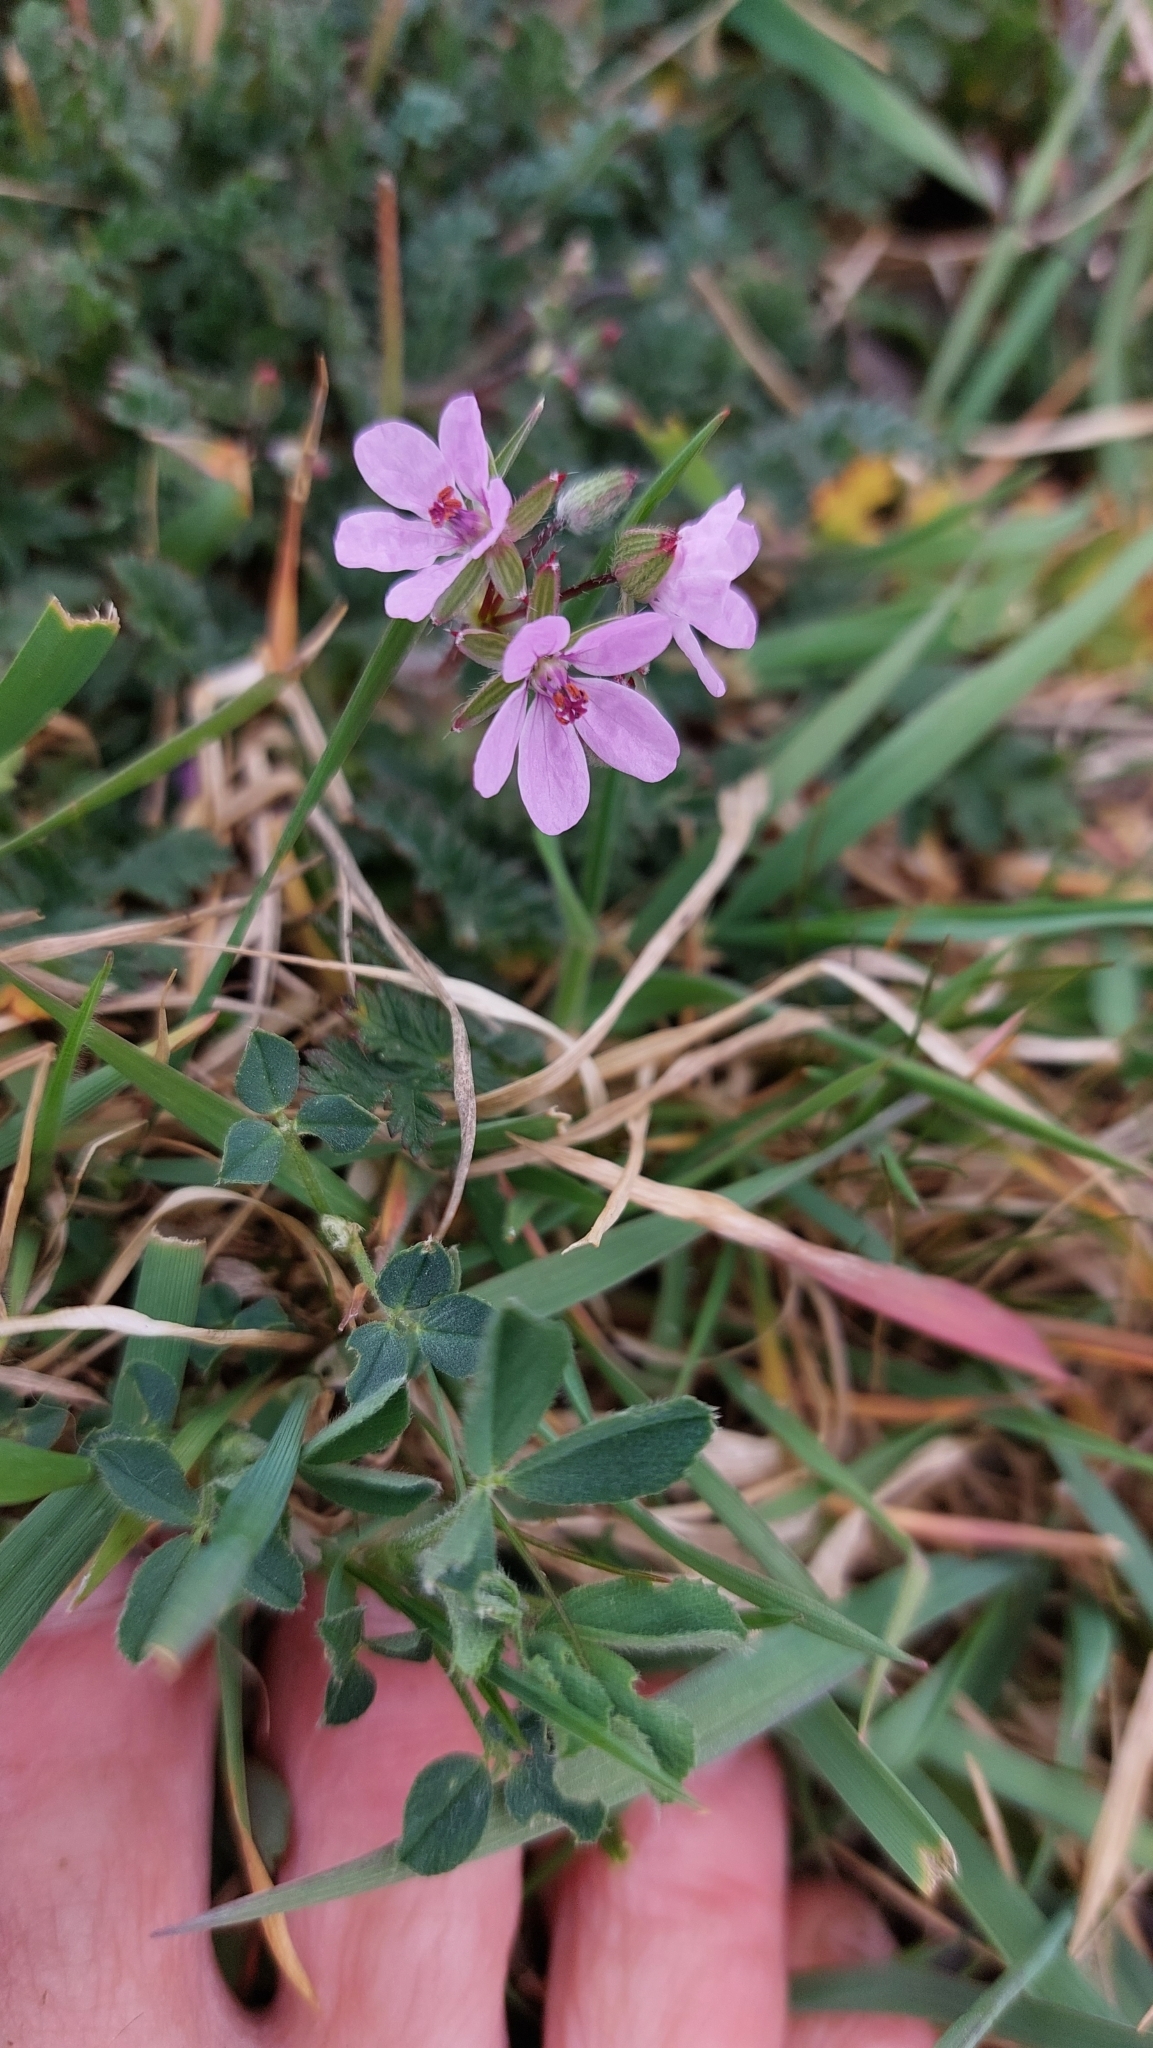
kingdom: Plantae
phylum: Tracheophyta
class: Magnoliopsida
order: Geraniales
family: Geraniaceae
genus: Erodium
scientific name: Erodium cicutarium
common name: Common stork's-bill
